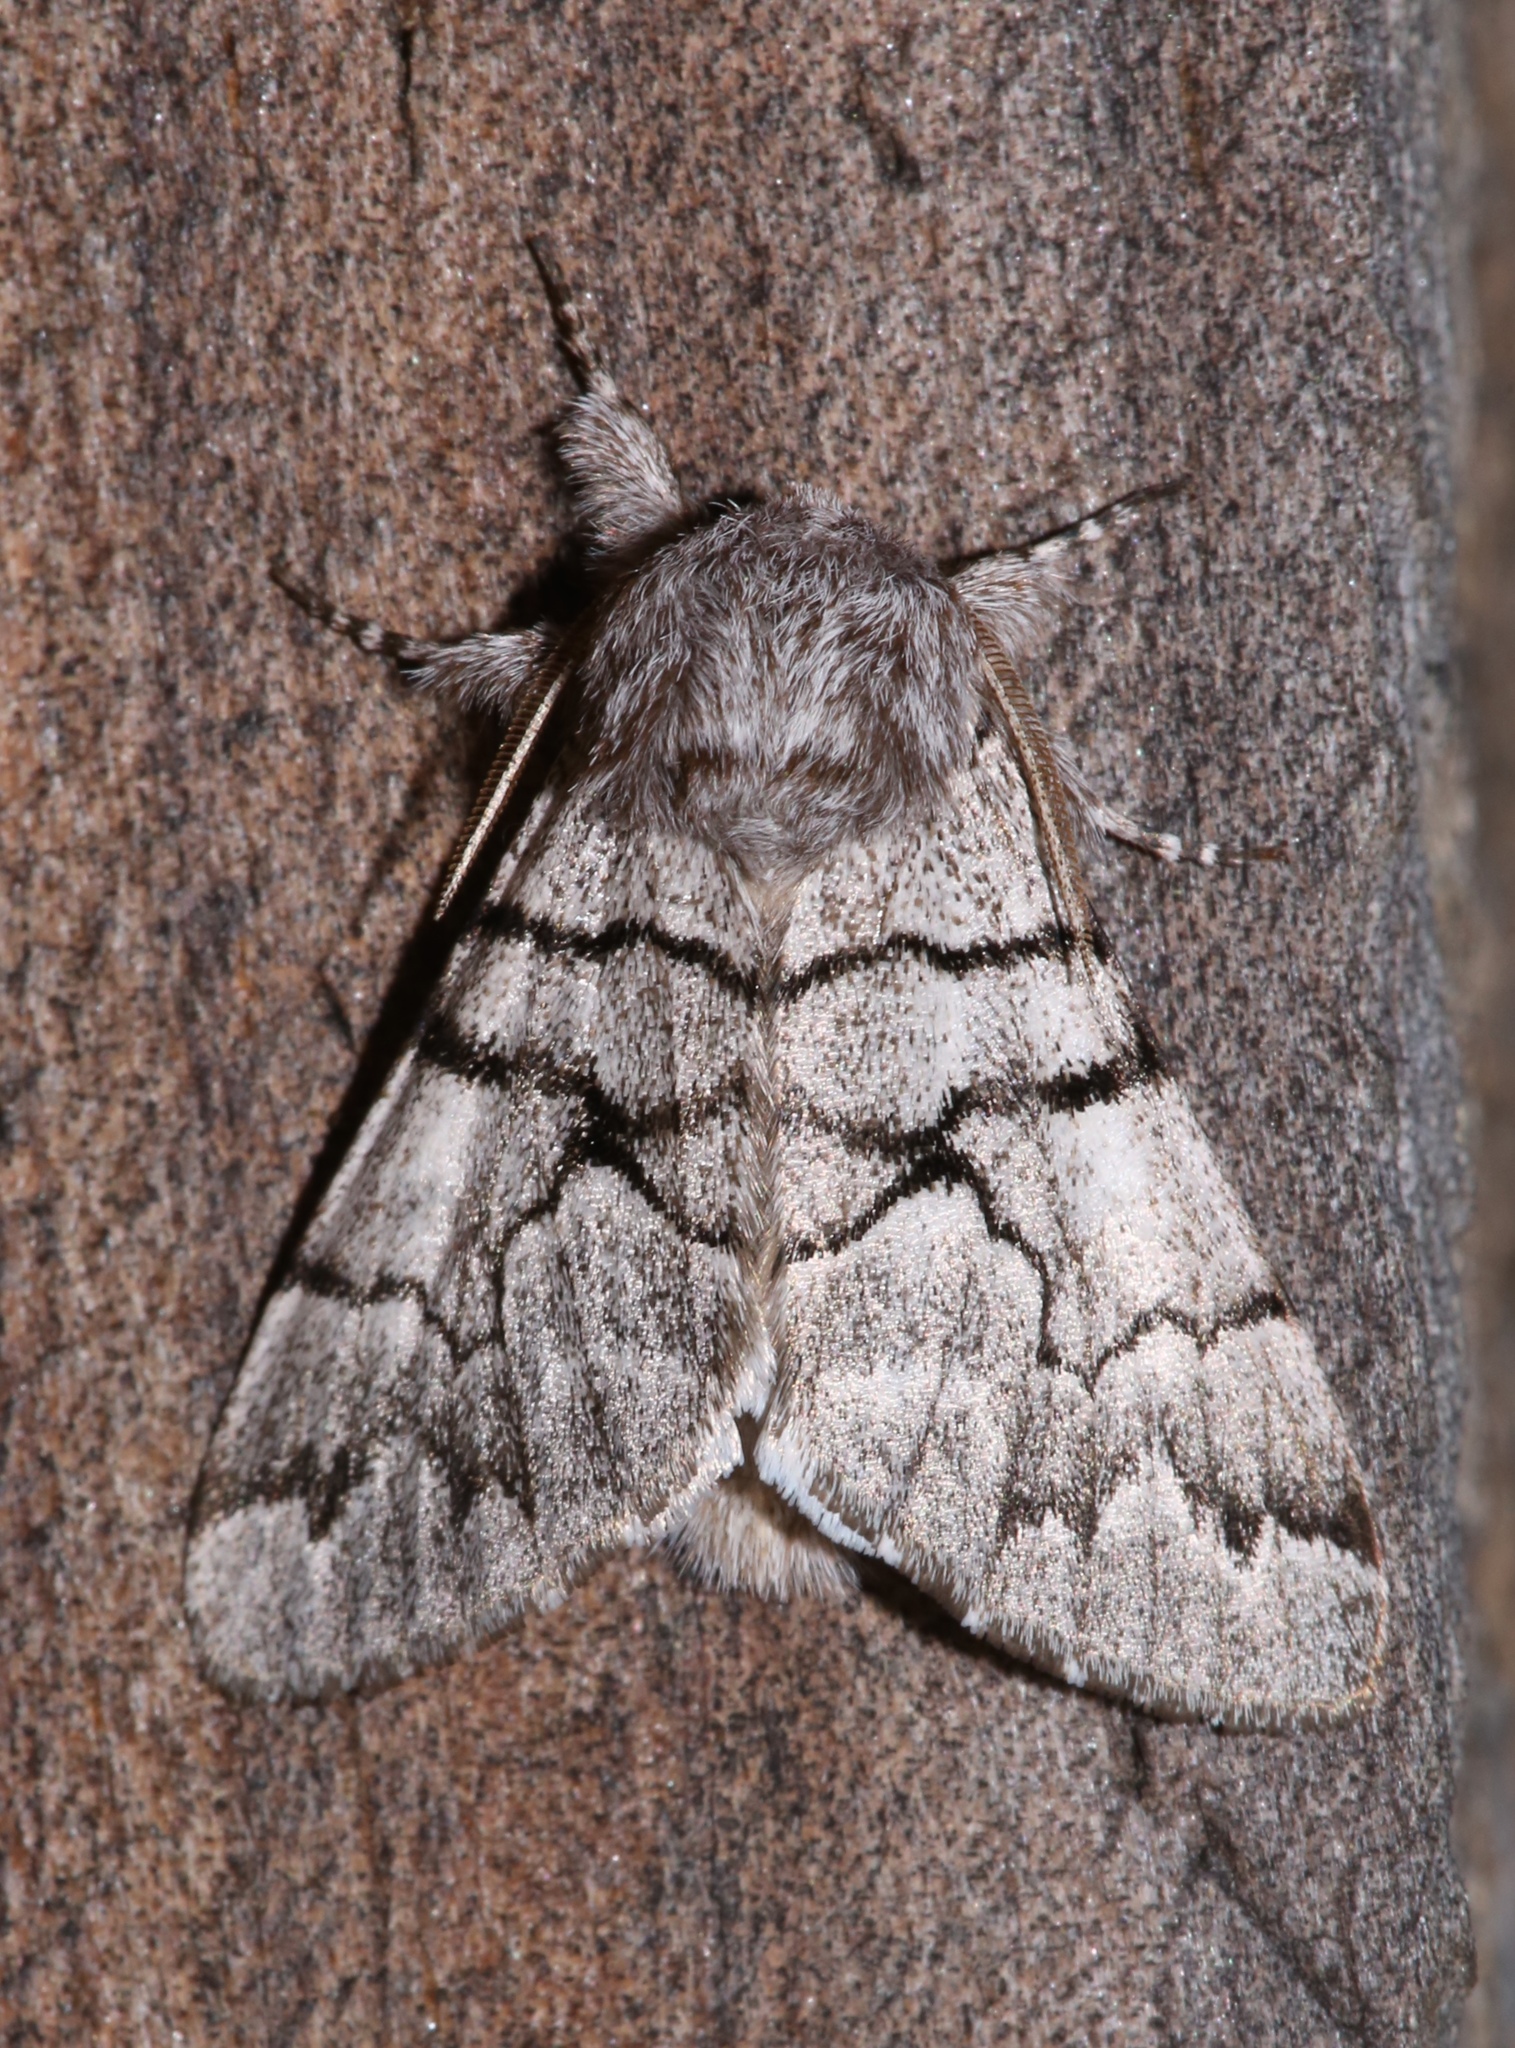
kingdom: Animalia
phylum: Arthropoda
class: Insecta
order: Lepidoptera
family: Noctuidae
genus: Panthea
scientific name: Panthea furcilla
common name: Eastern panthea moth
